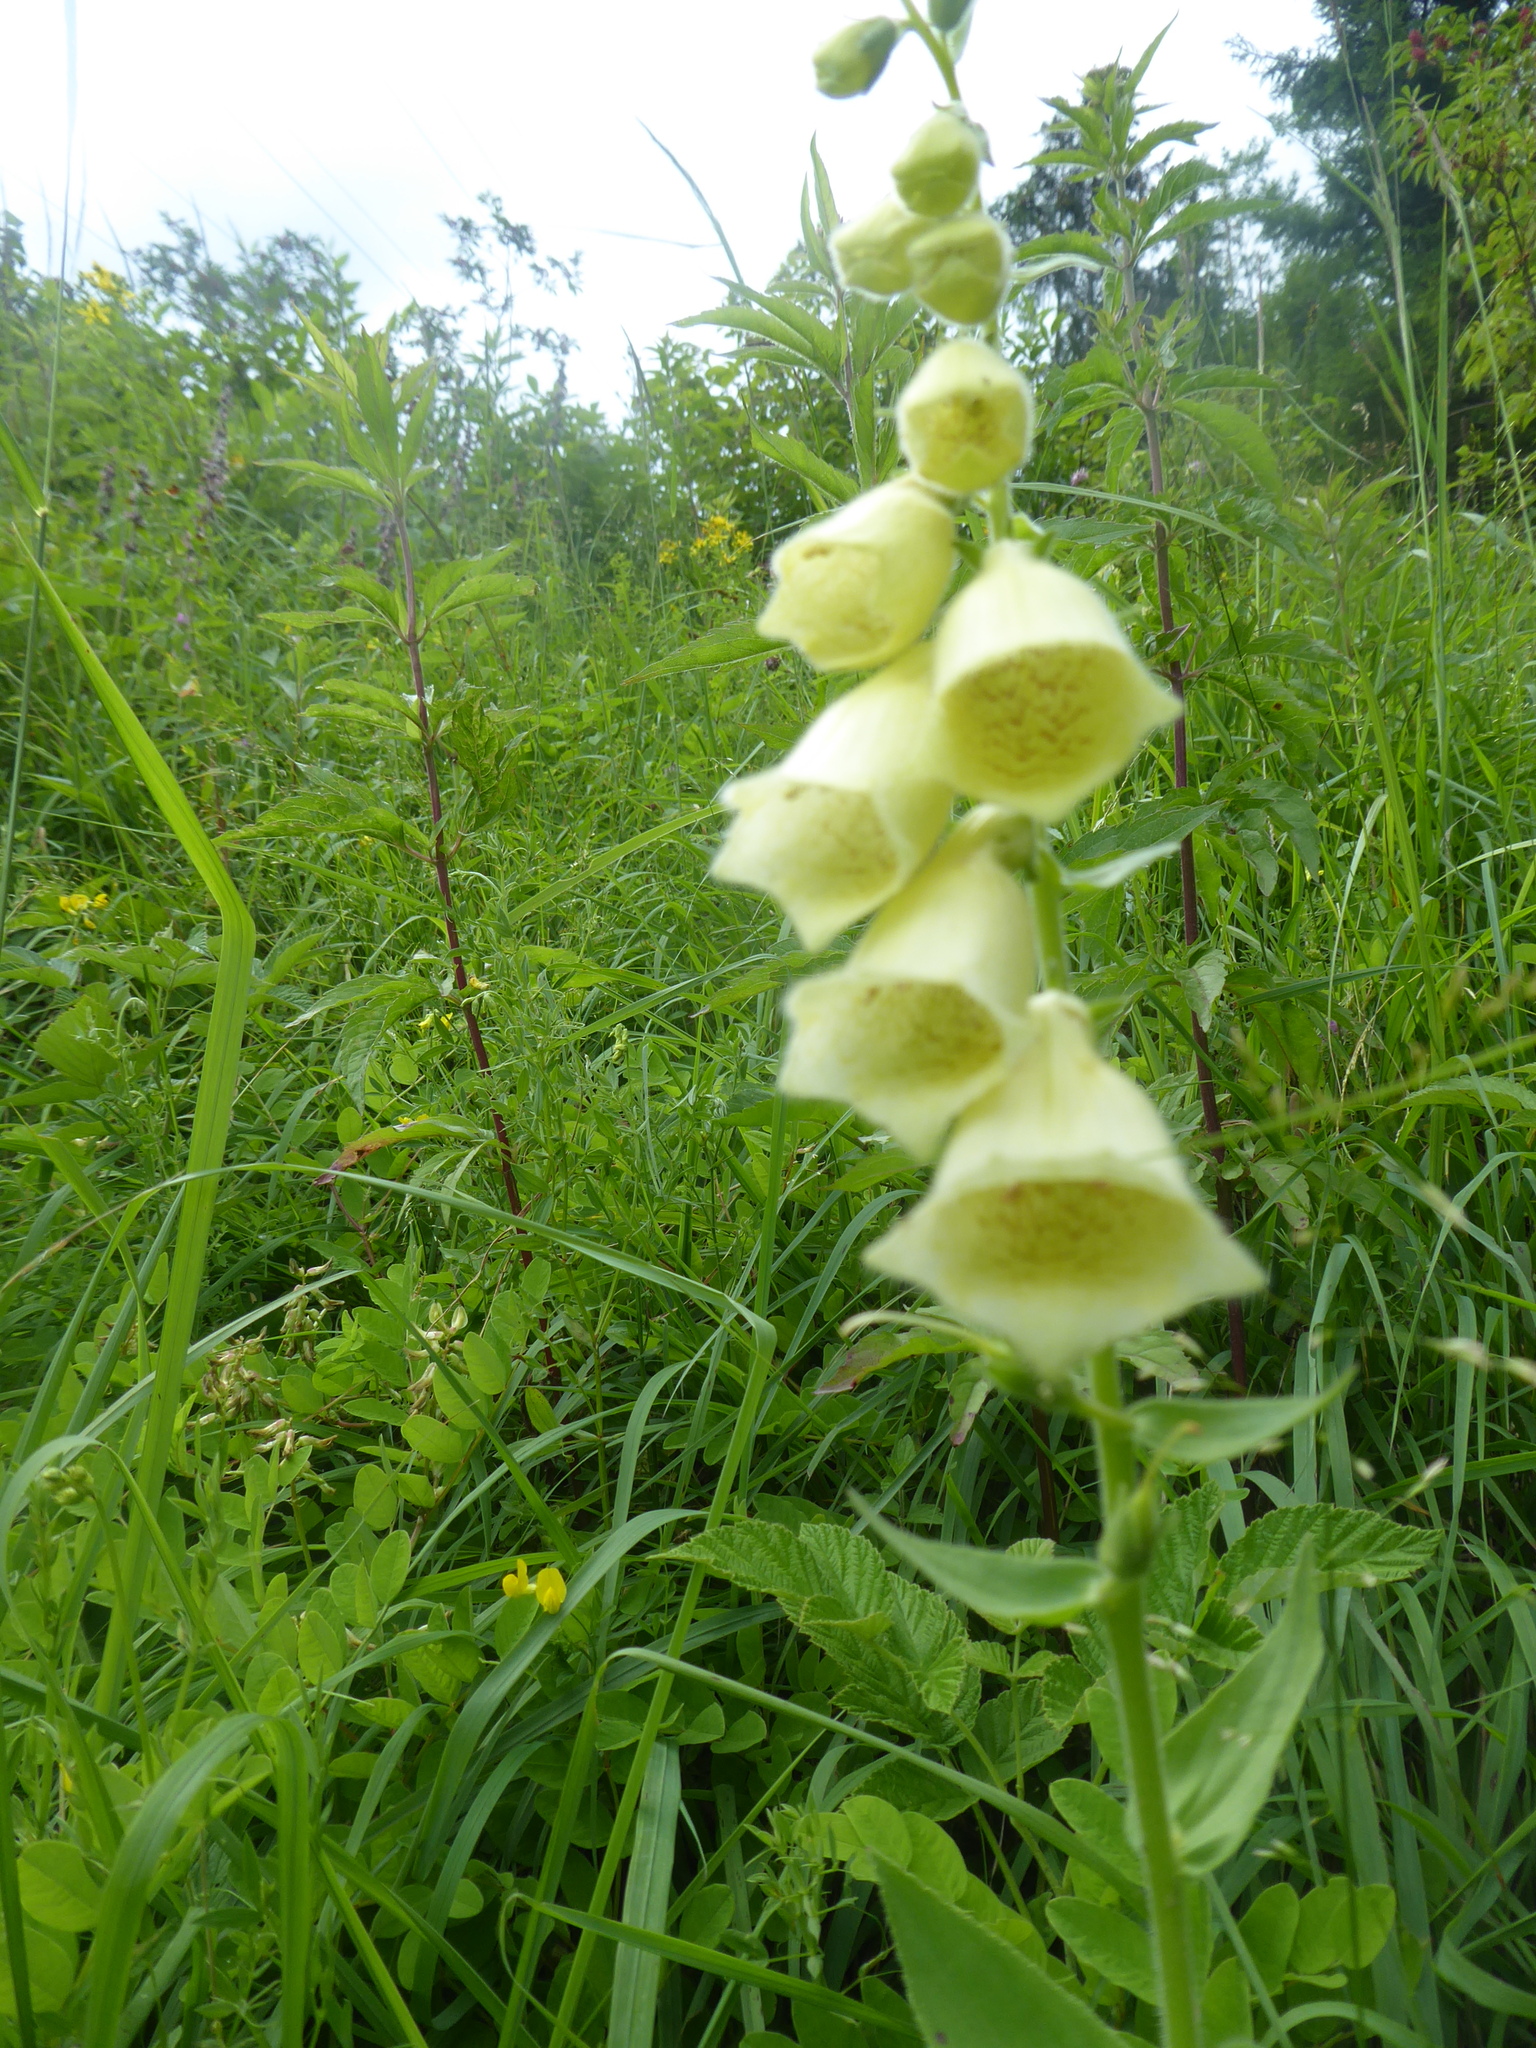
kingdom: Plantae
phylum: Tracheophyta
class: Magnoliopsida
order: Lamiales
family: Plantaginaceae
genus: Digitalis
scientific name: Digitalis grandiflora
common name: Yellow foxglove
